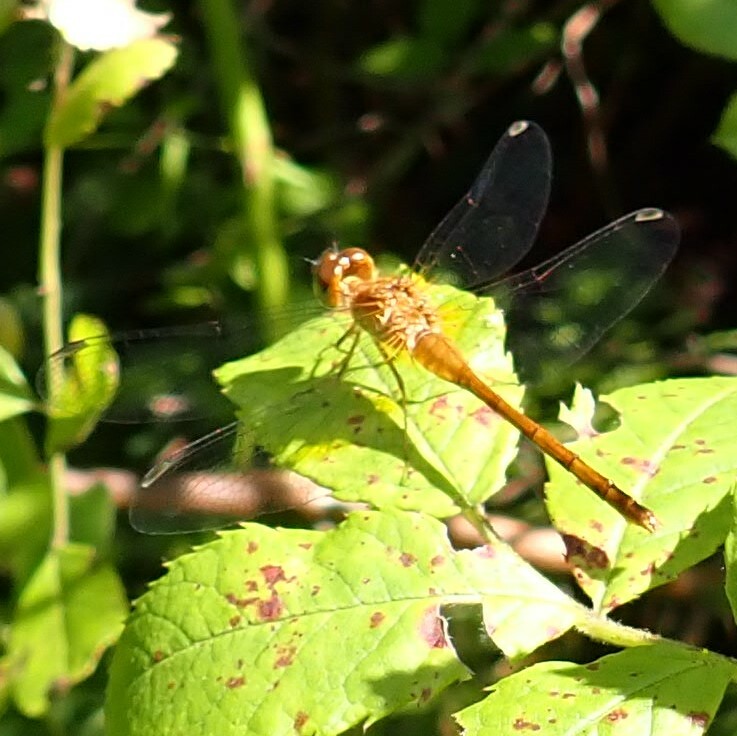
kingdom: Animalia
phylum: Arthropoda
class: Insecta
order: Odonata
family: Libellulidae
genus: Sympetrum
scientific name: Sympetrum vicinum
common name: Autumn meadowhawk
